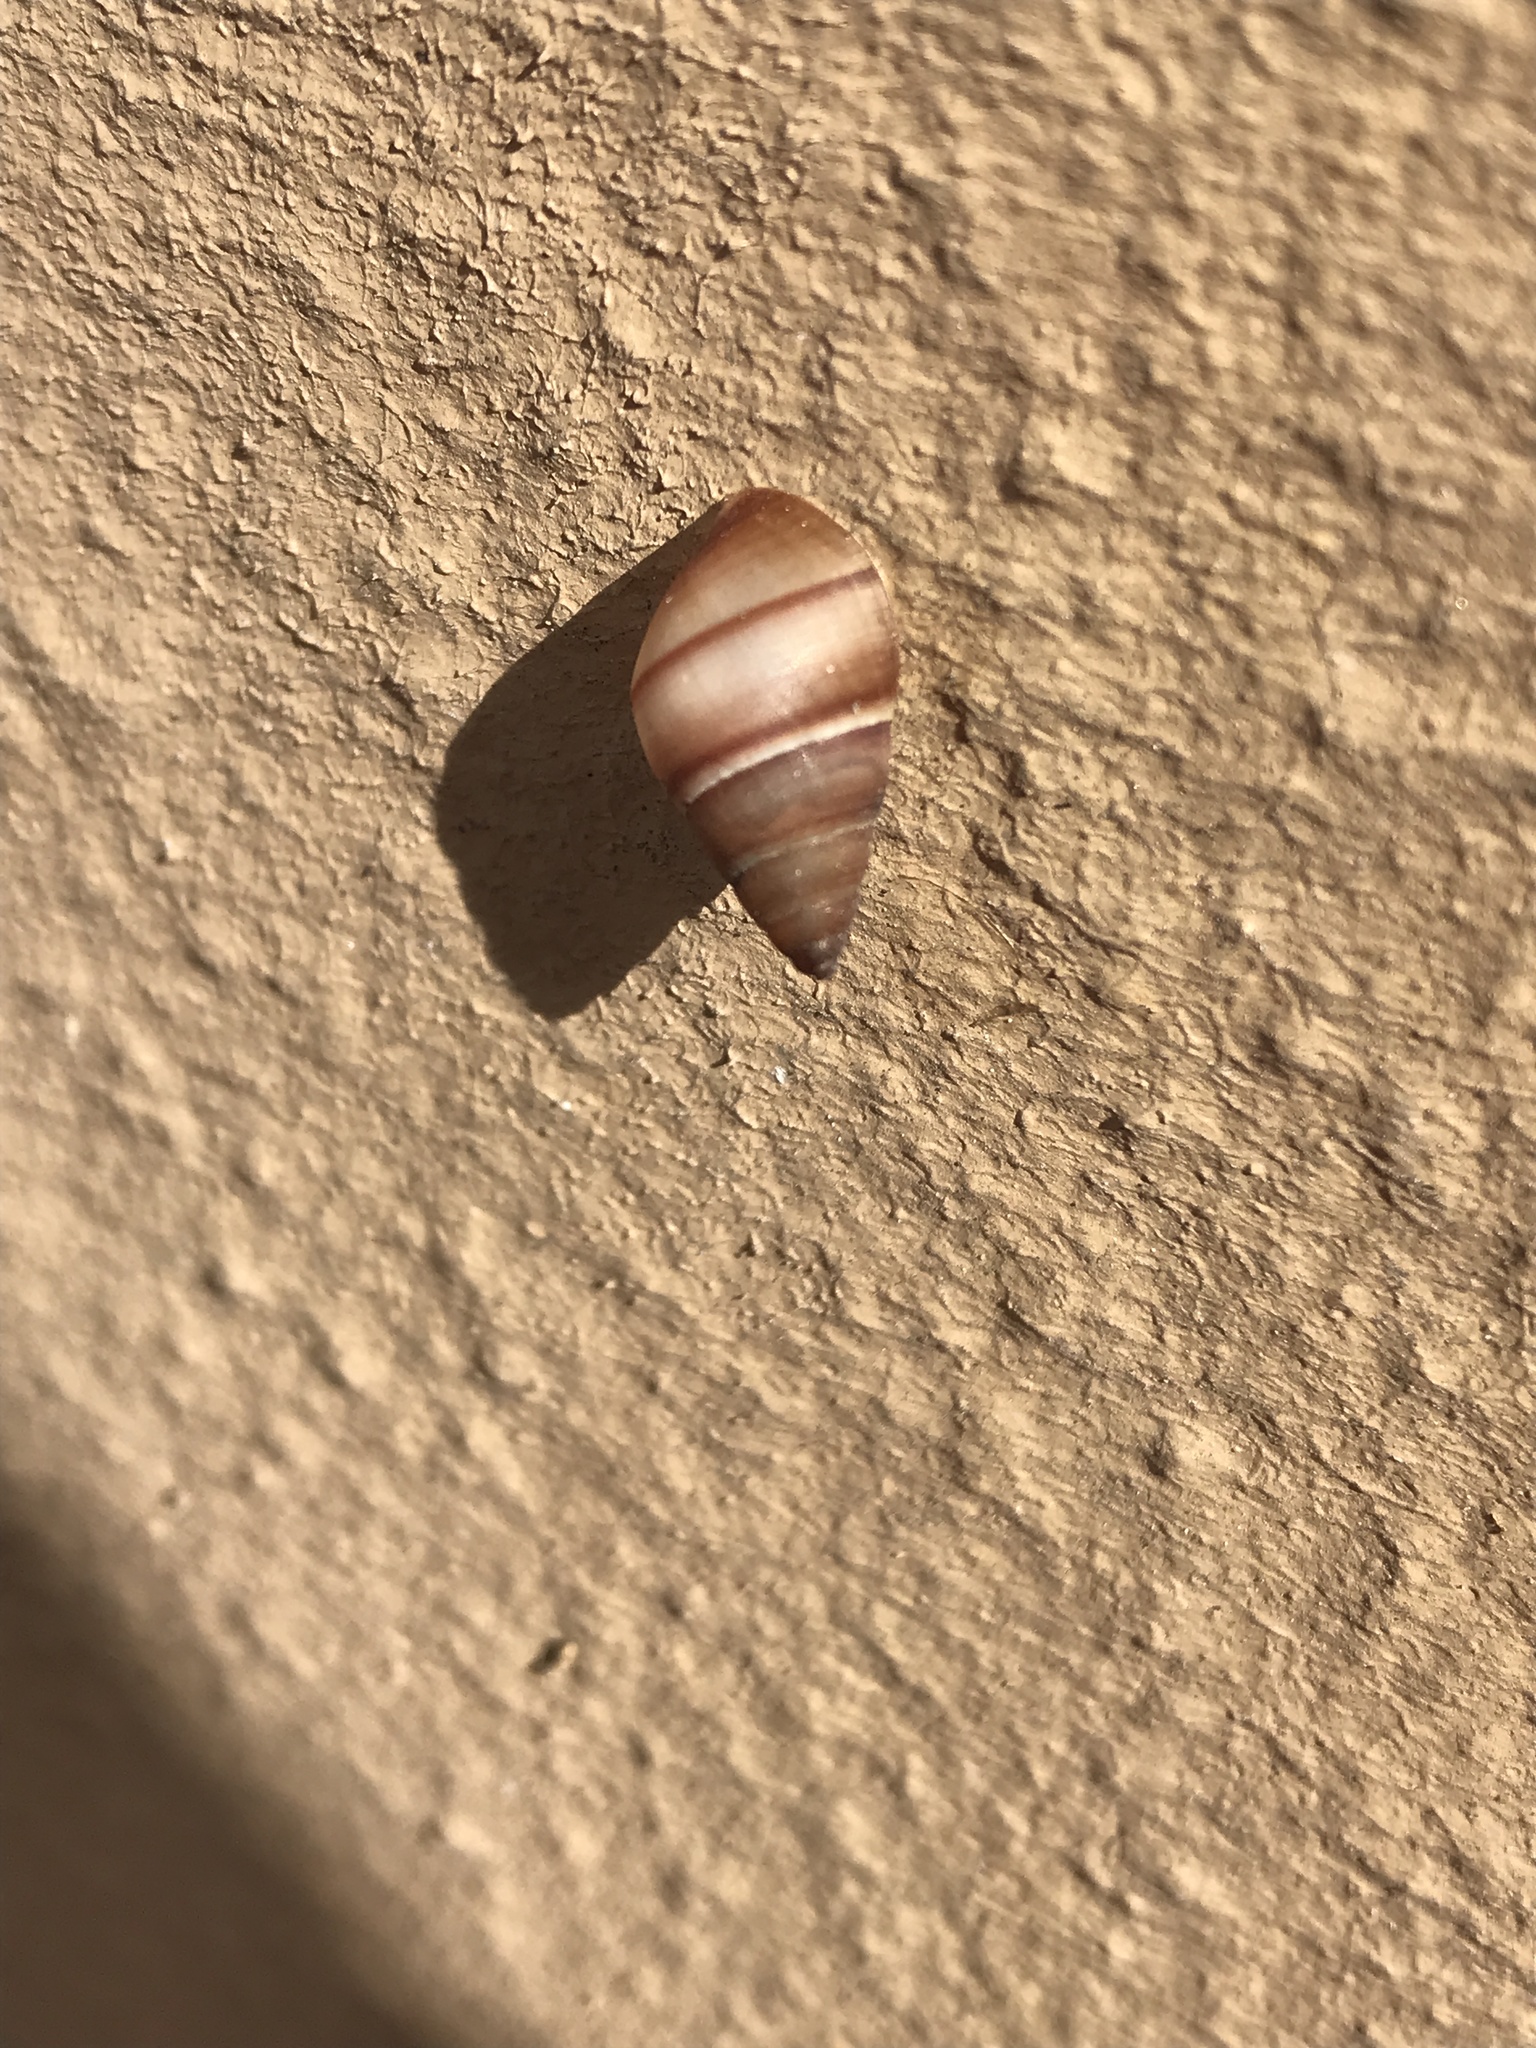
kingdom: Animalia
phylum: Mollusca
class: Gastropoda
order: Stylommatophora
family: Bulimulidae
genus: Bulimulus
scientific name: Bulimulus guadalupensis
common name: West indian bulimulus
